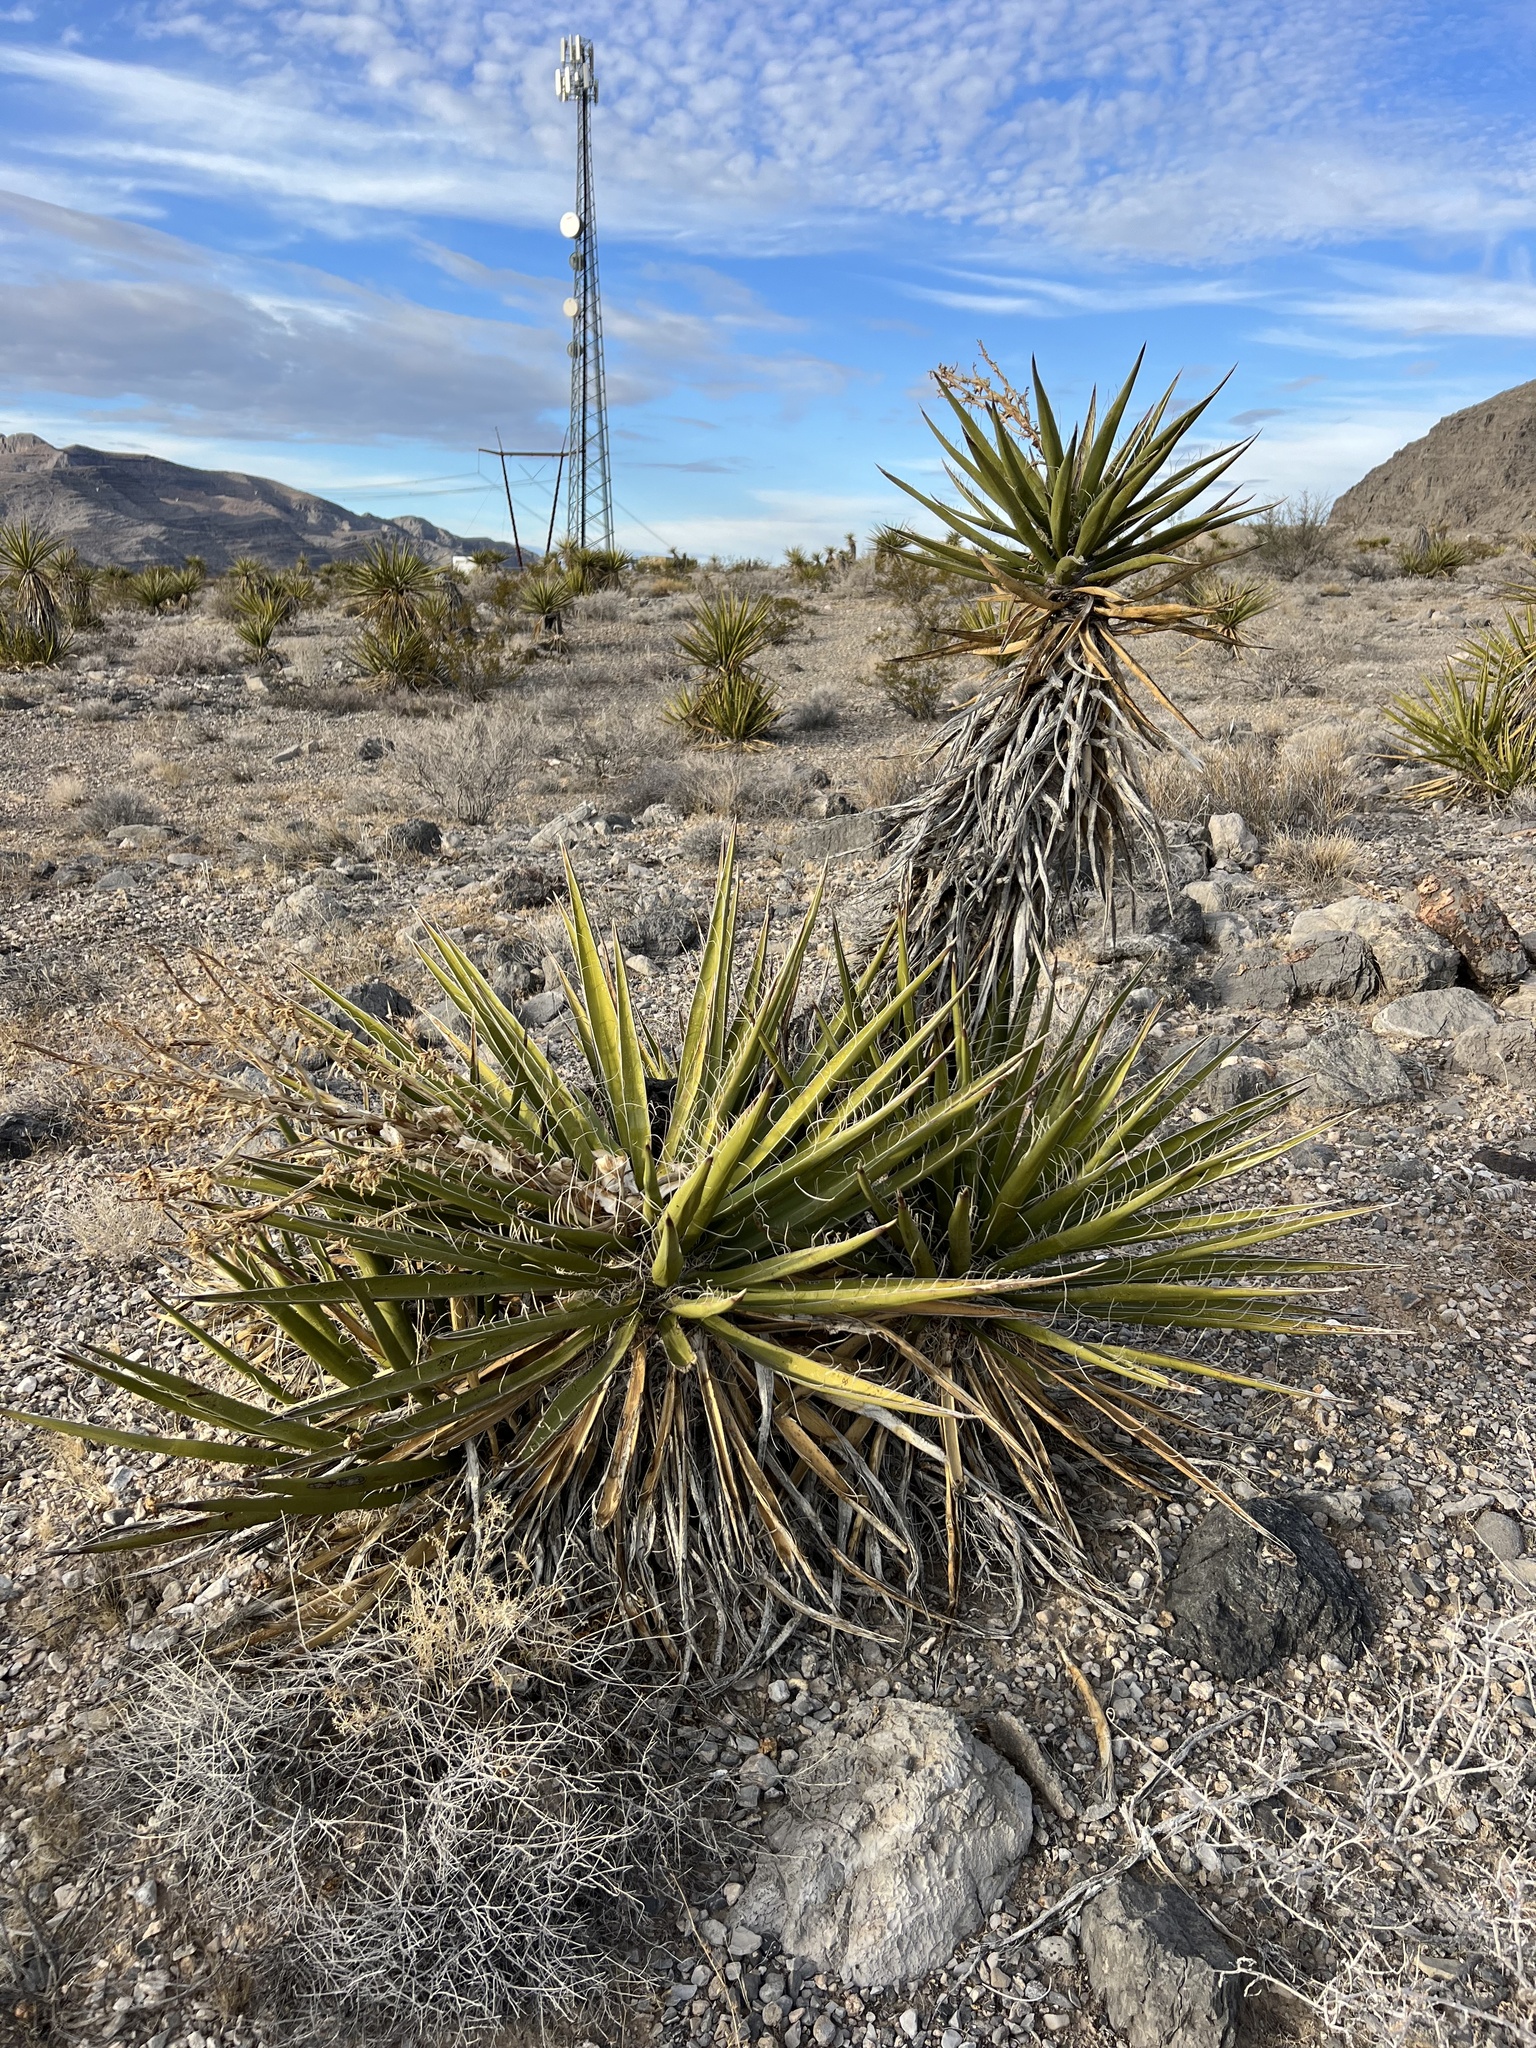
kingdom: Plantae
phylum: Tracheophyta
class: Liliopsida
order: Asparagales
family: Asparagaceae
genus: Yucca
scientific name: Yucca schidigera
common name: Mojave yucca
